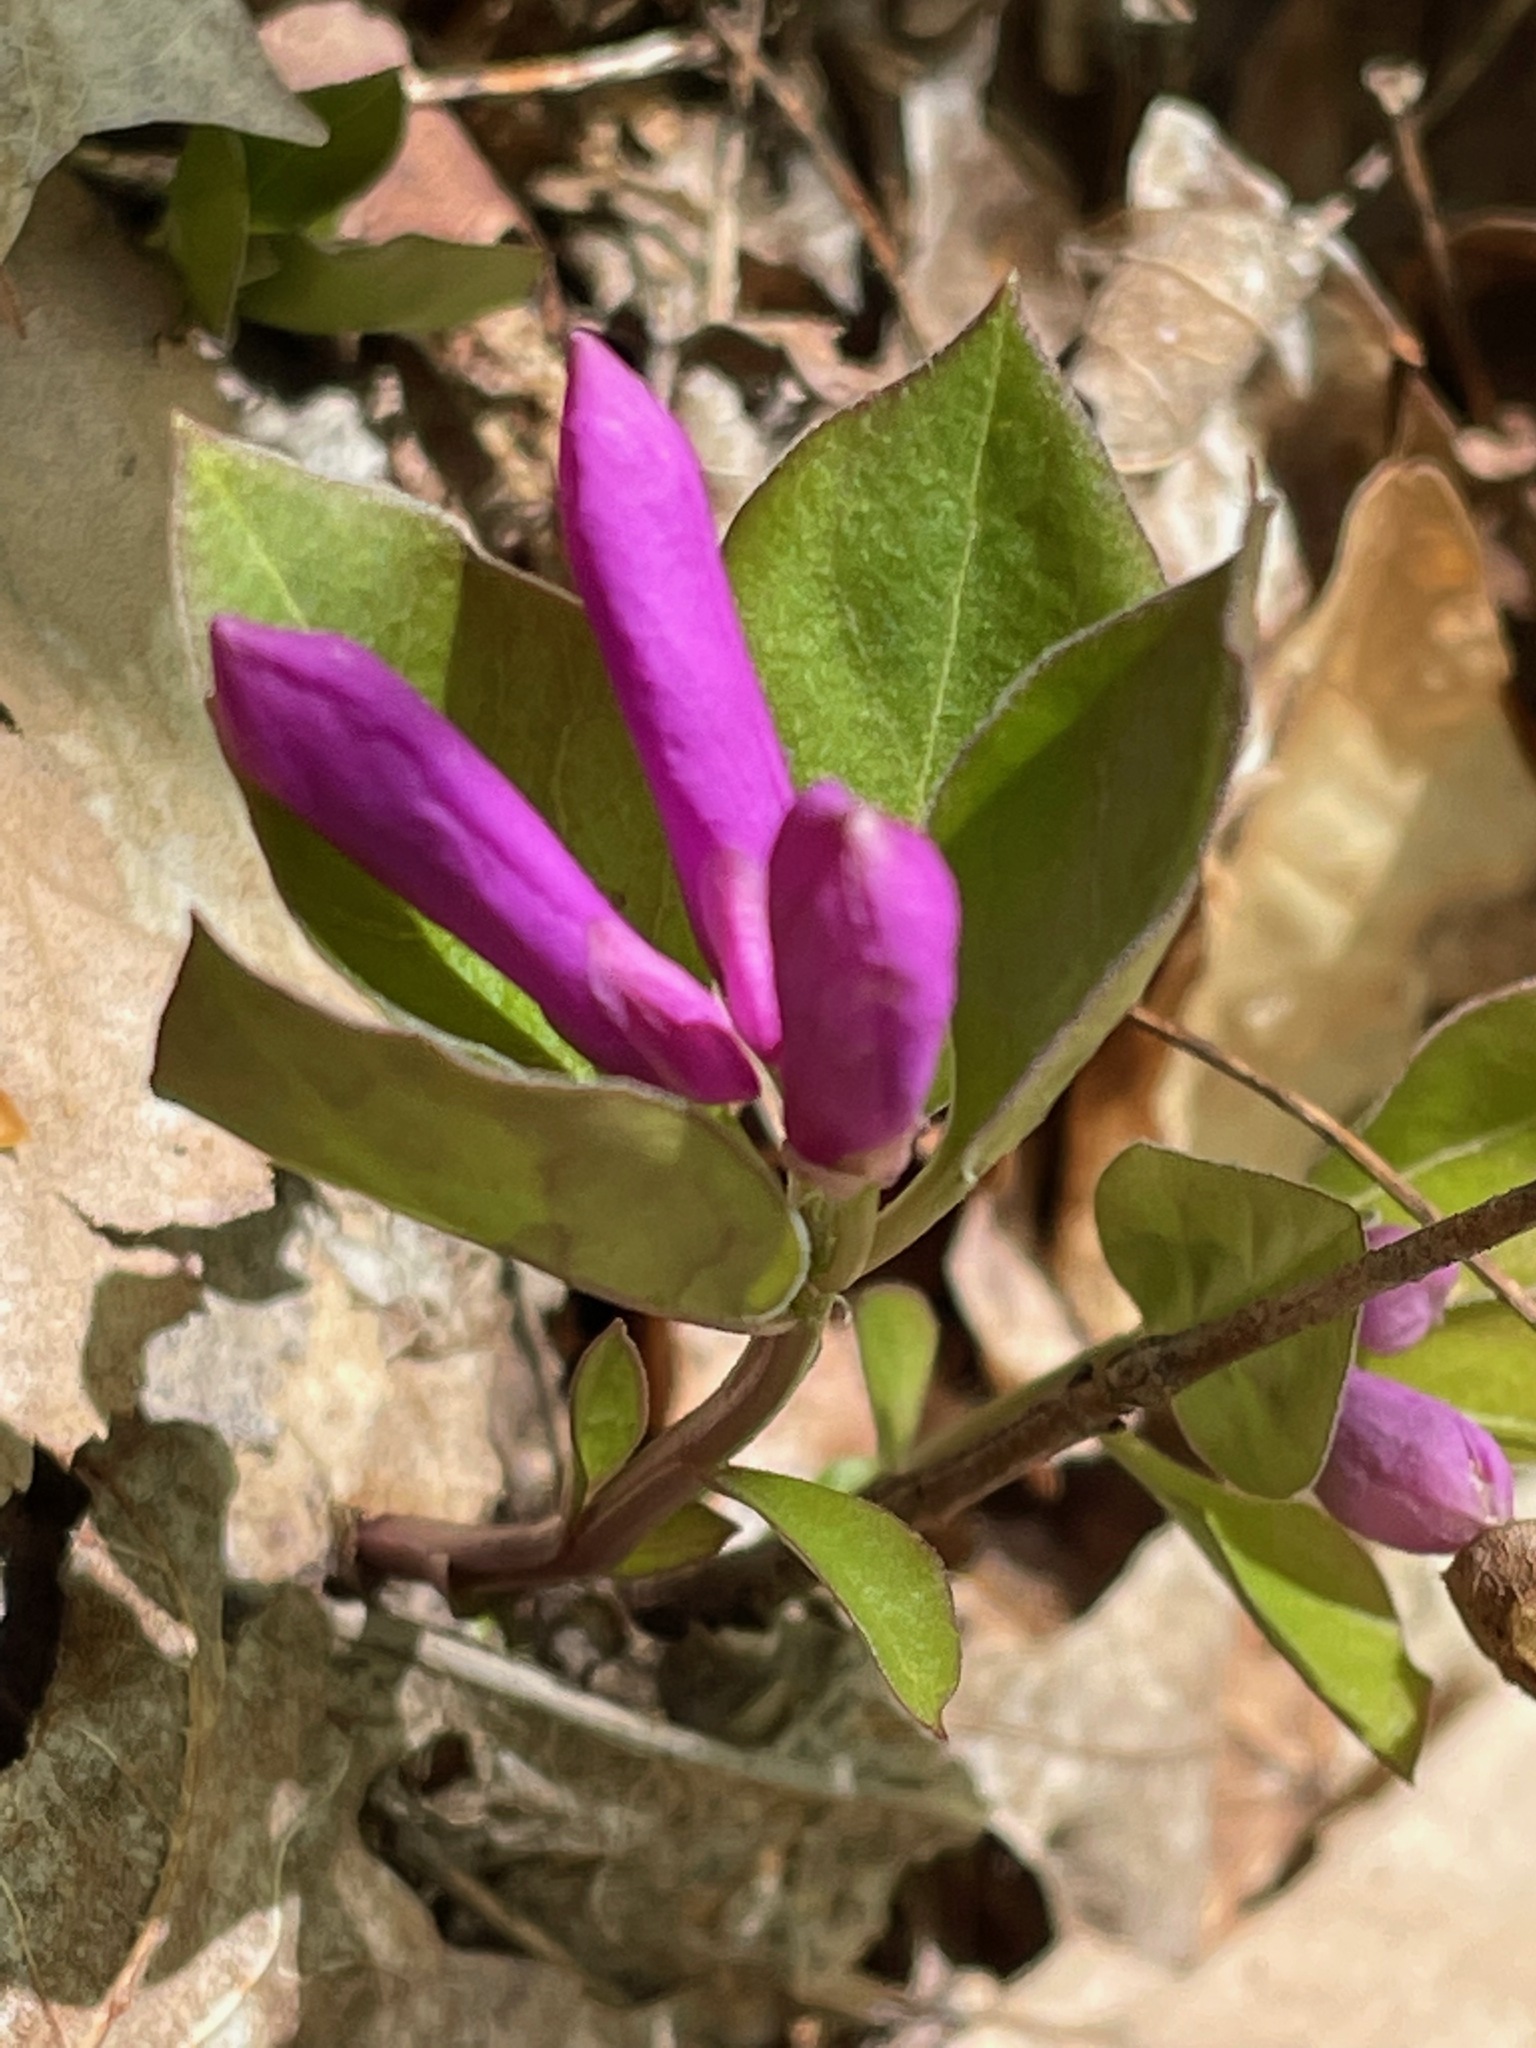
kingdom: Plantae
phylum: Tracheophyta
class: Magnoliopsida
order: Fabales
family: Polygalaceae
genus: Polygaloides
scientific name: Polygaloides paucifolia
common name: Bird-on-the-wing
